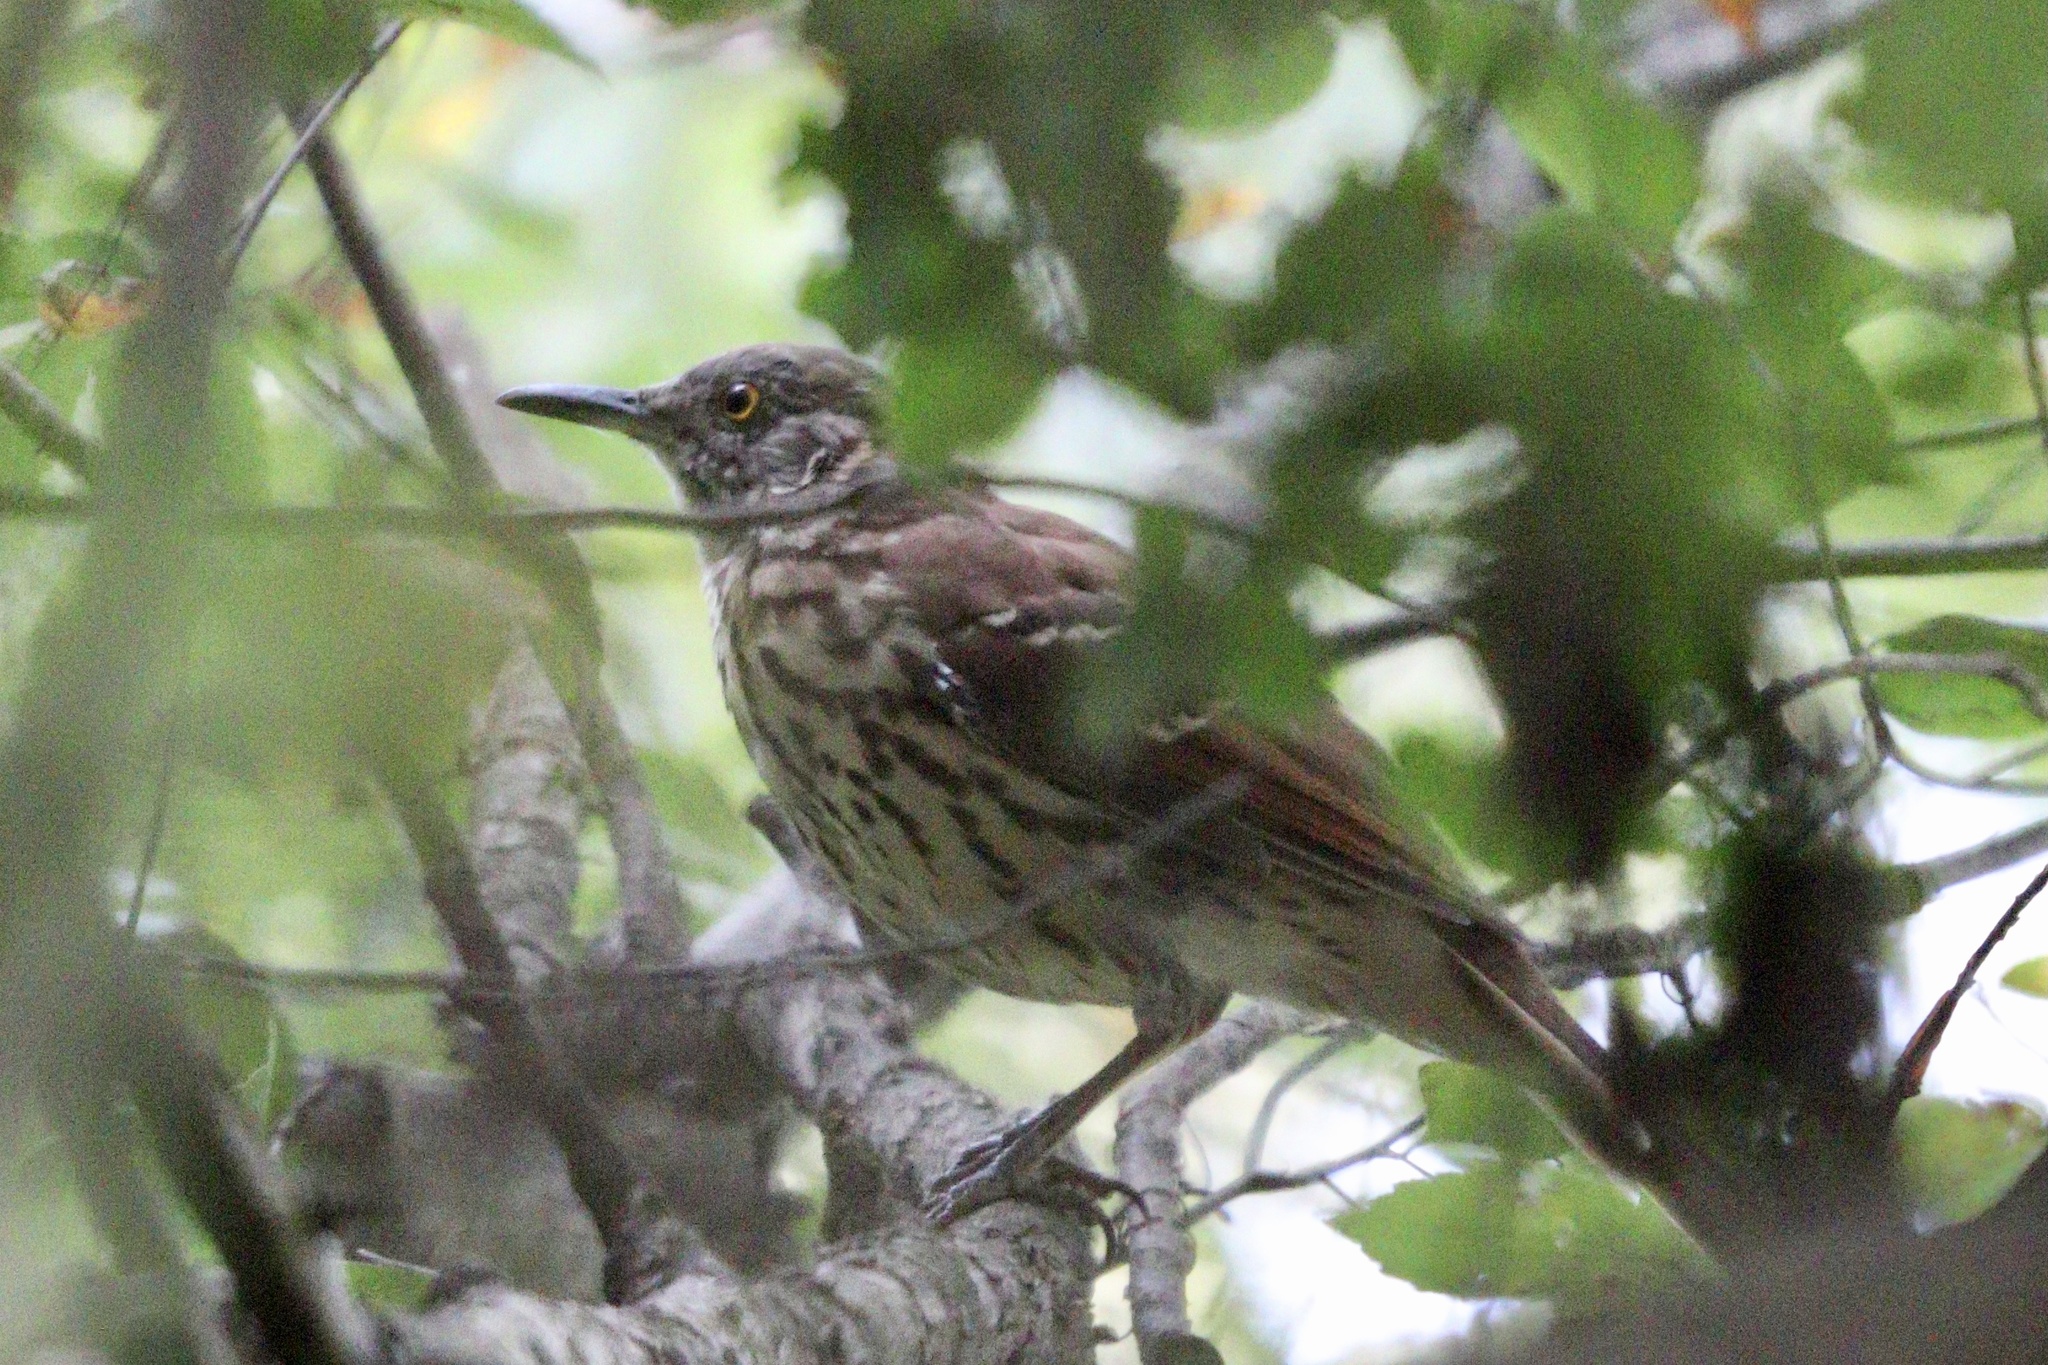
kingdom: Animalia
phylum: Chordata
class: Aves
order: Passeriformes
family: Mimidae
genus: Toxostoma
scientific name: Toxostoma rufum
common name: Brown thrasher
